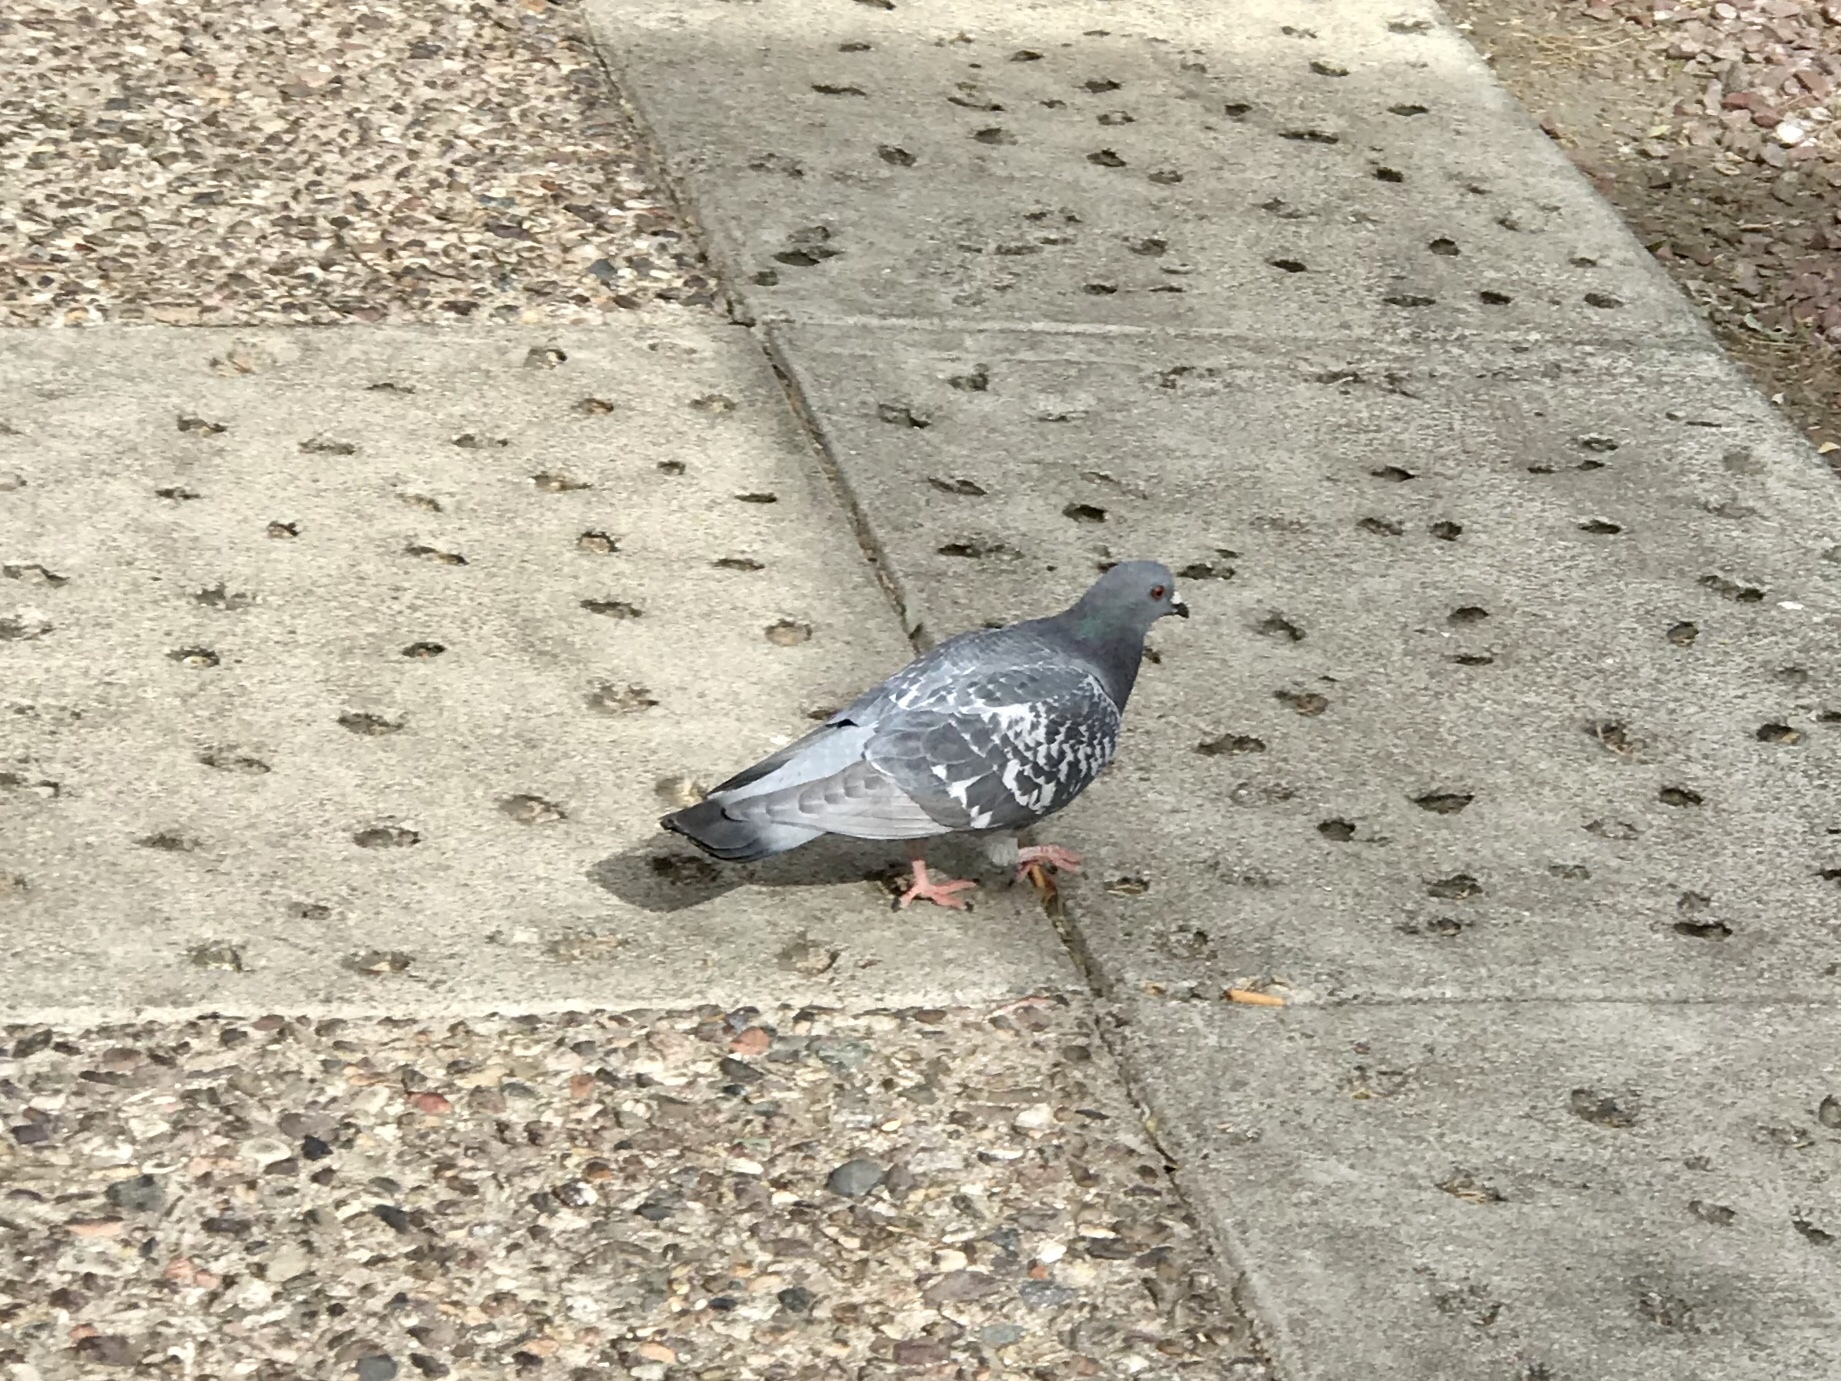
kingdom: Animalia
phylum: Chordata
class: Aves
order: Columbiformes
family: Columbidae
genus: Columba
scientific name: Columba livia
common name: Rock pigeon
